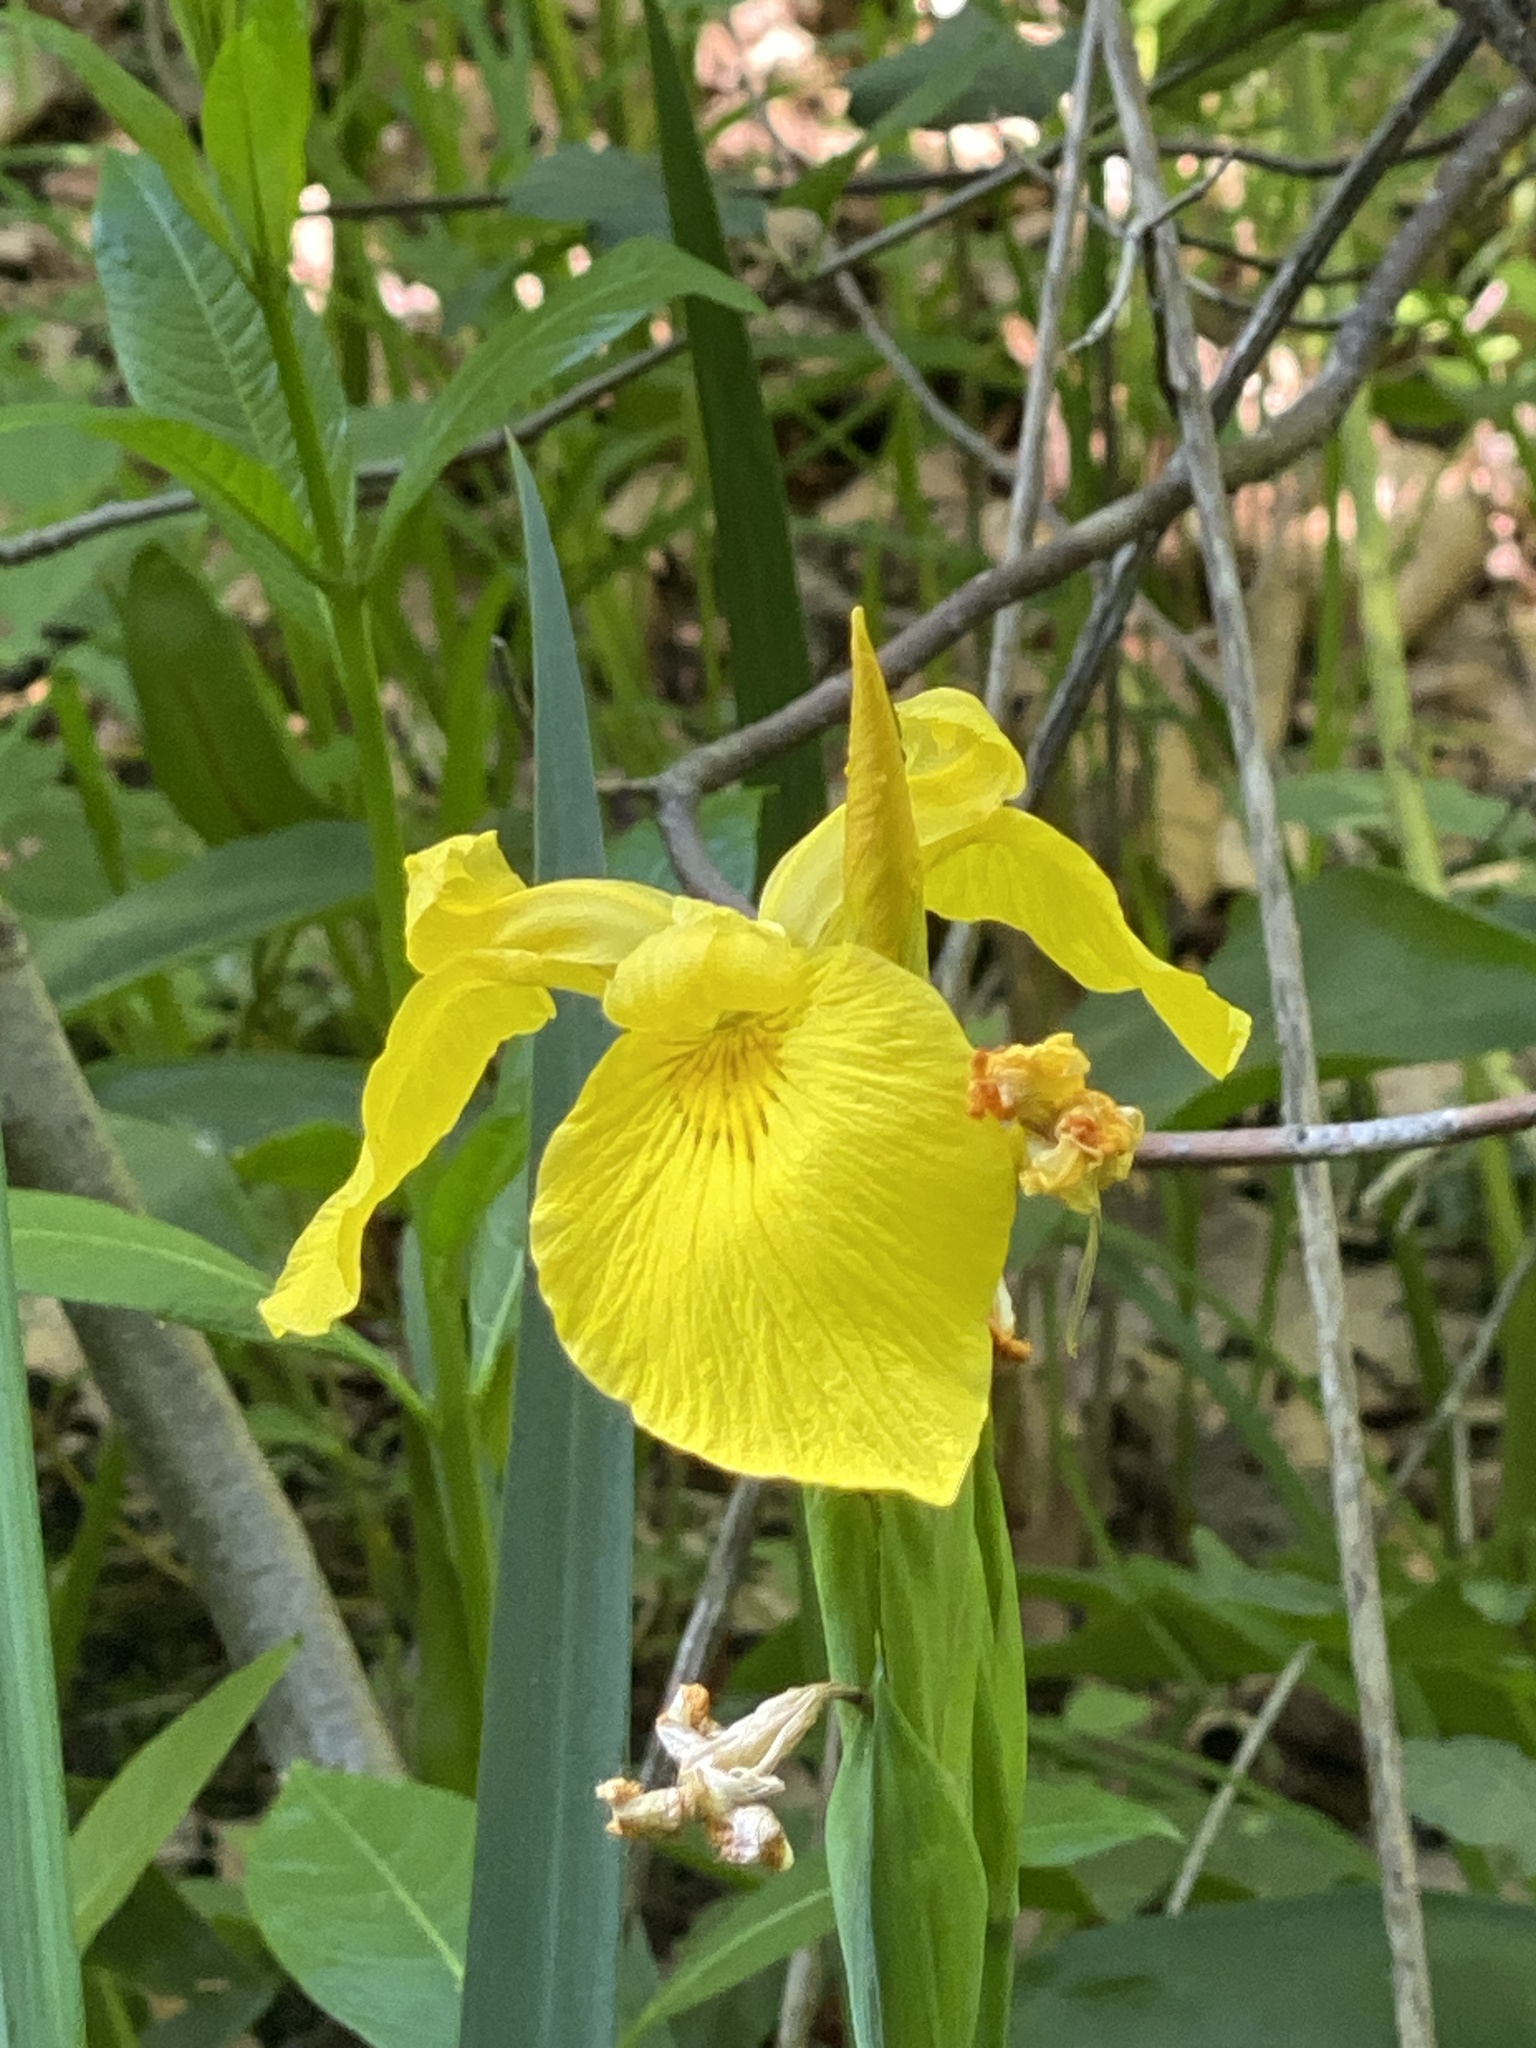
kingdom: Plantae
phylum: Tracheophyta
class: Liliopsida
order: Asparagales
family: Iridaceae
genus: Iris
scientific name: Iris pseudacorus
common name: Yellow flag
